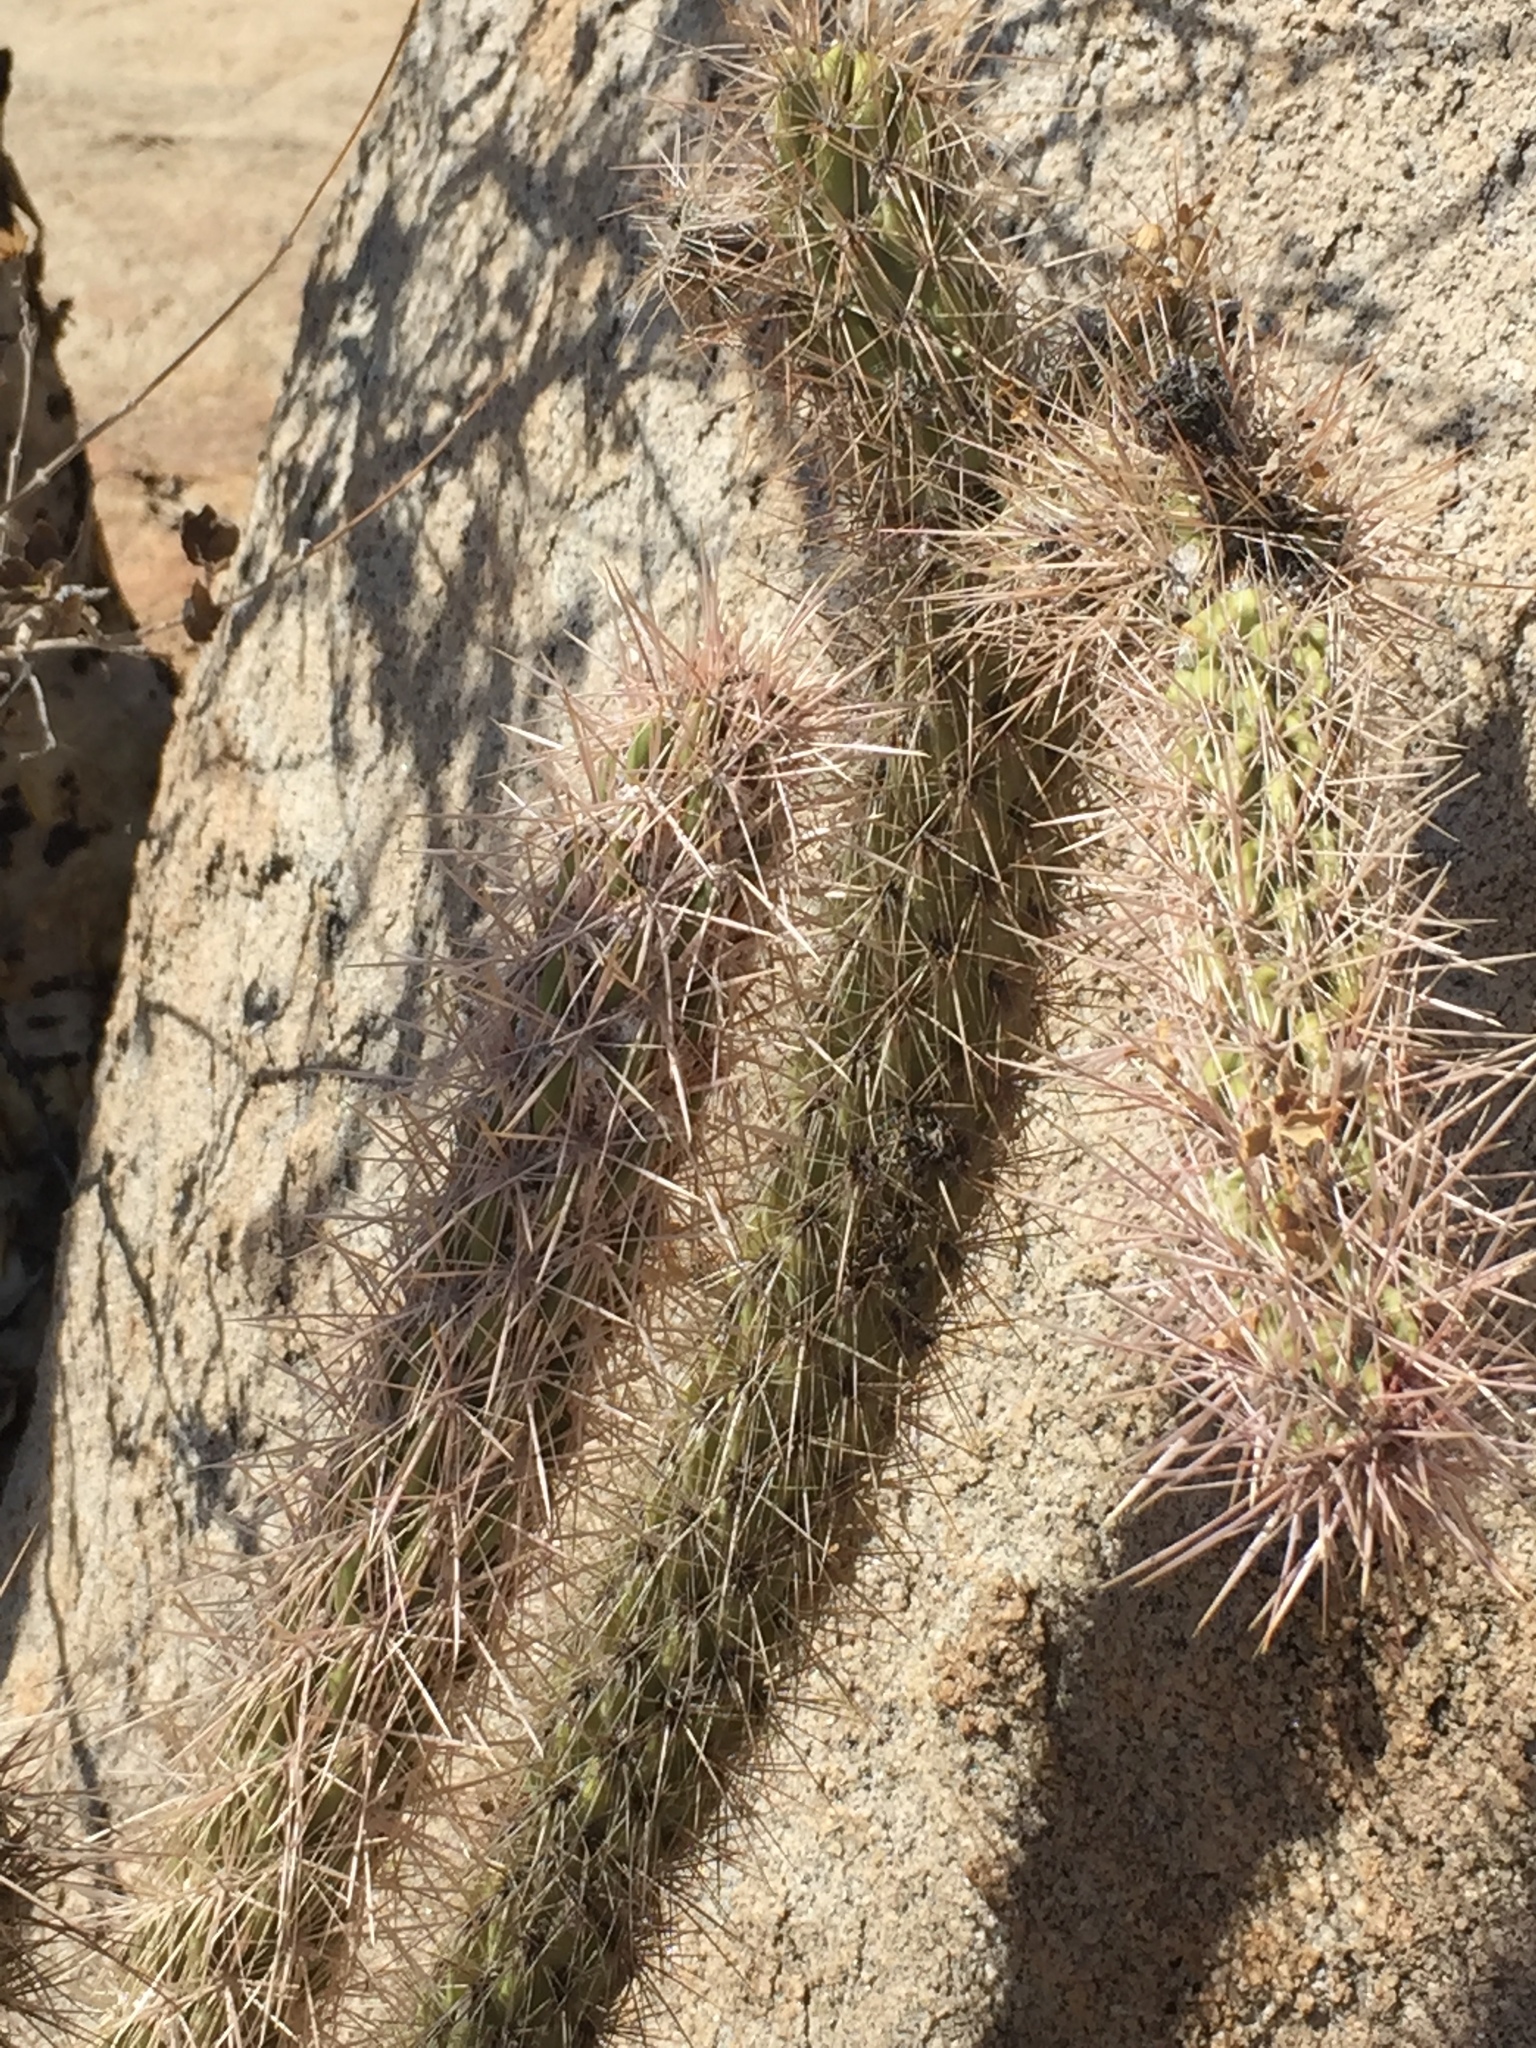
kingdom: Plantae
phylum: Tracheophyta
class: Magnoliopsida
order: Caryophyllales
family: Cactaceae
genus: Cylindropuntia
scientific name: Cylindropuntia ganderi
